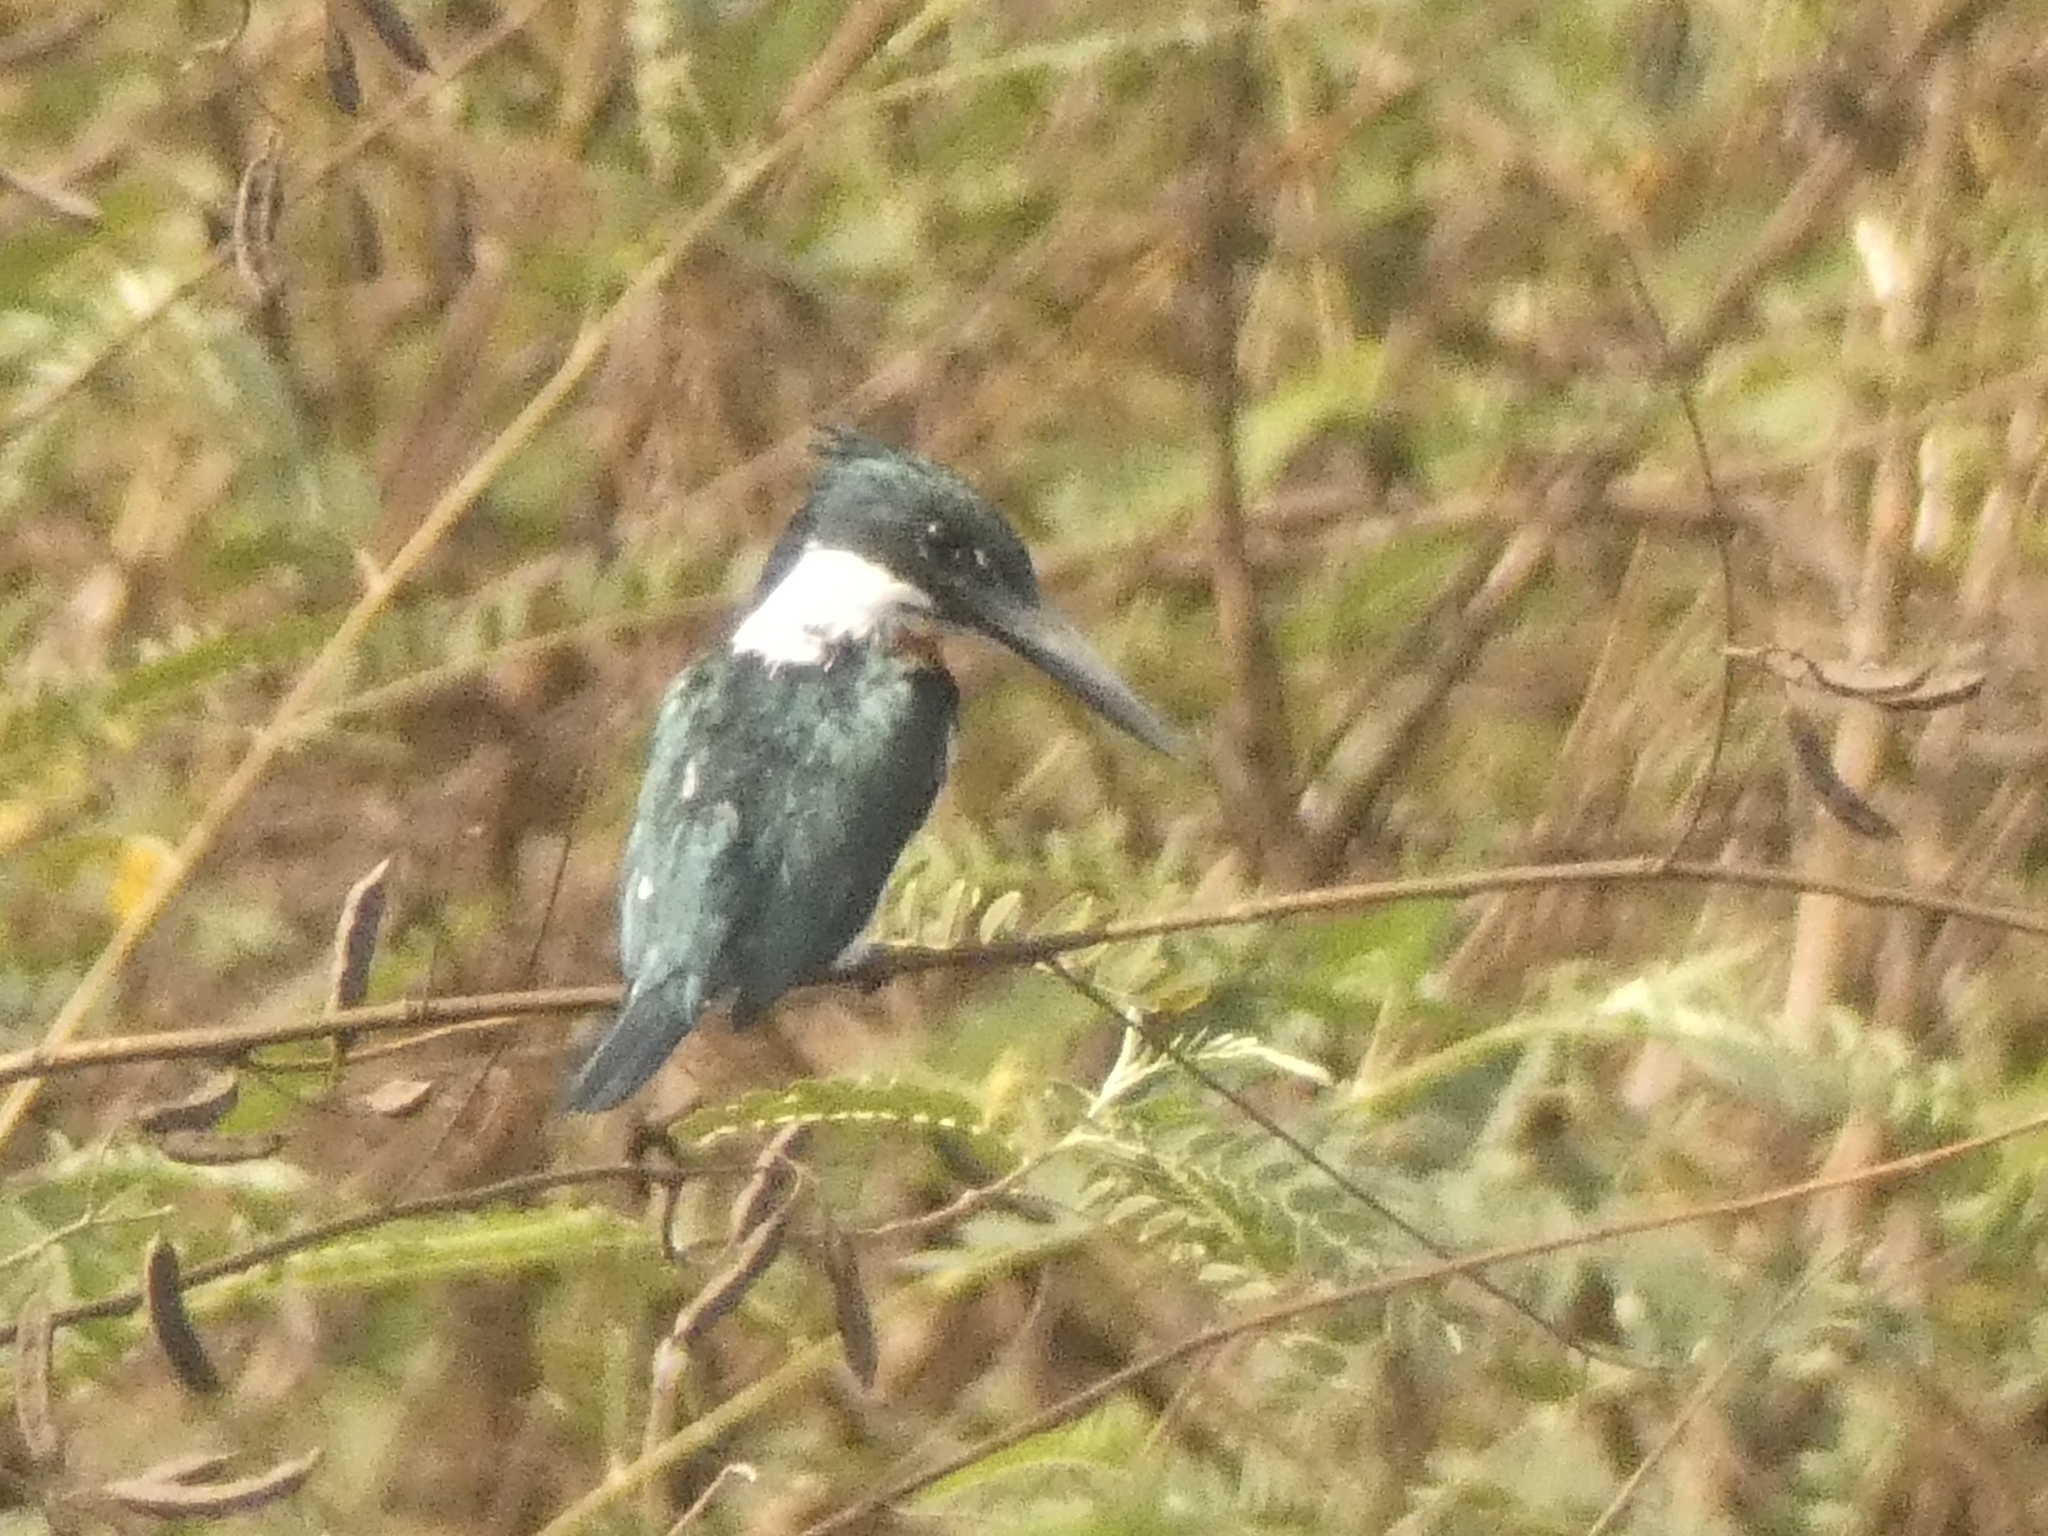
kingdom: Animalia
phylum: Chordata
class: Aves
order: Coraciiformes
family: Alcedinidae
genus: Chloroceryle
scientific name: Chloroceryle amazona
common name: Amazon kingfisher
